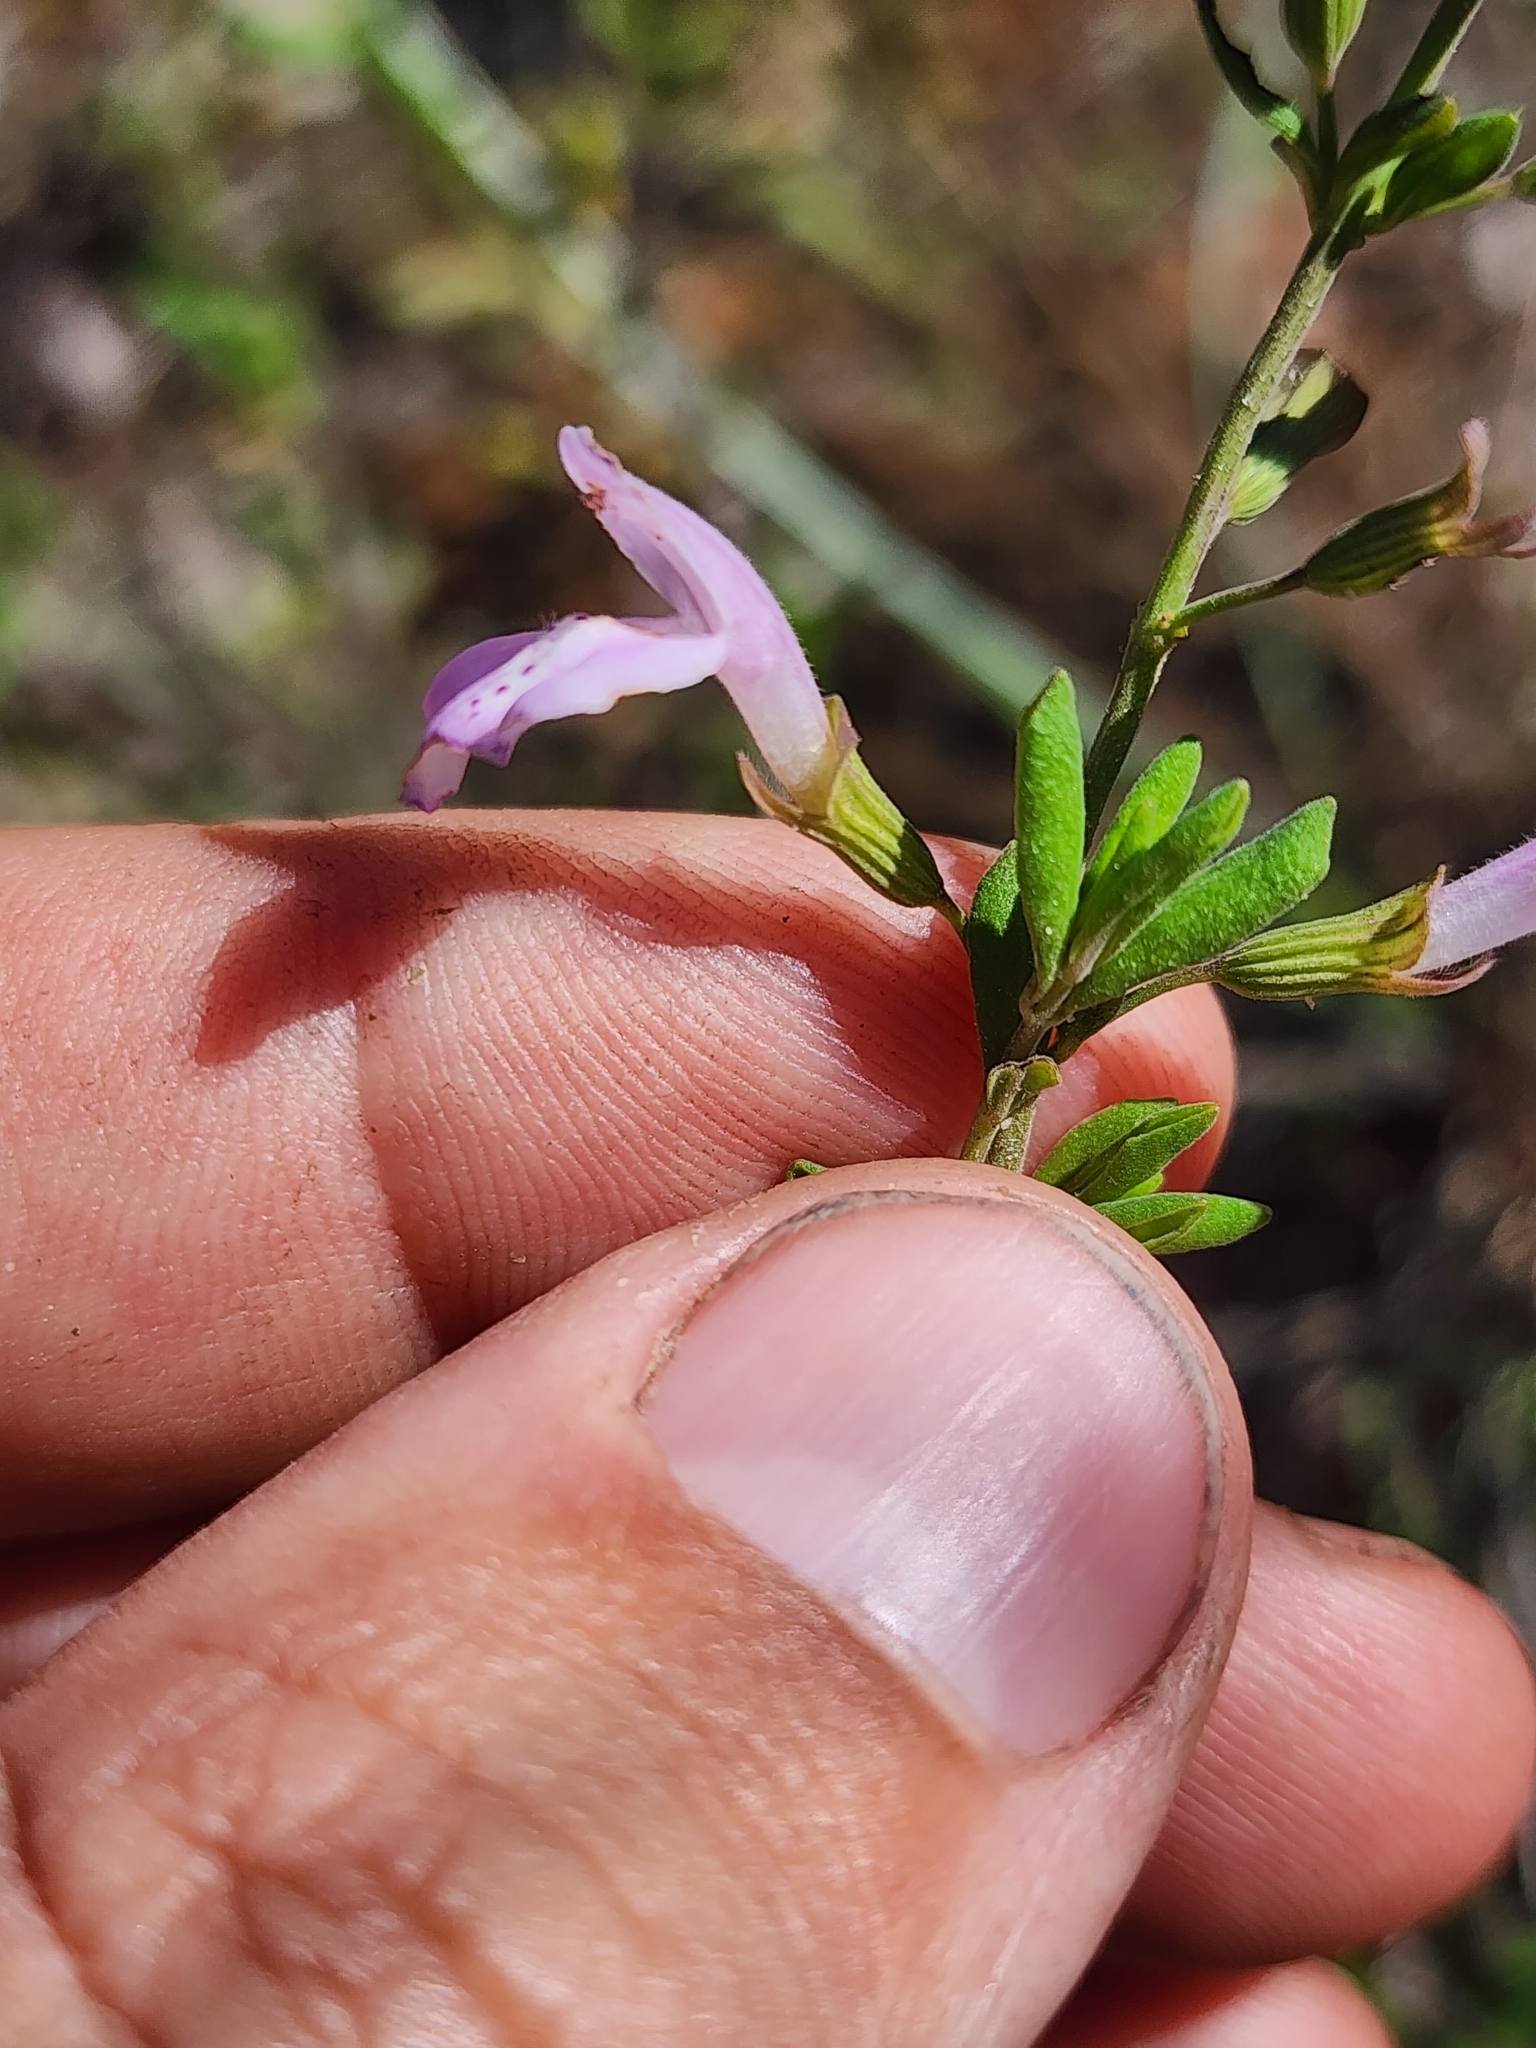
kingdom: Plantae
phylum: Tracheophyta
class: Magnoliopsida
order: Lamiales
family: Lamiaceae
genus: Clinopodium
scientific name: Clinopodium dentatum
